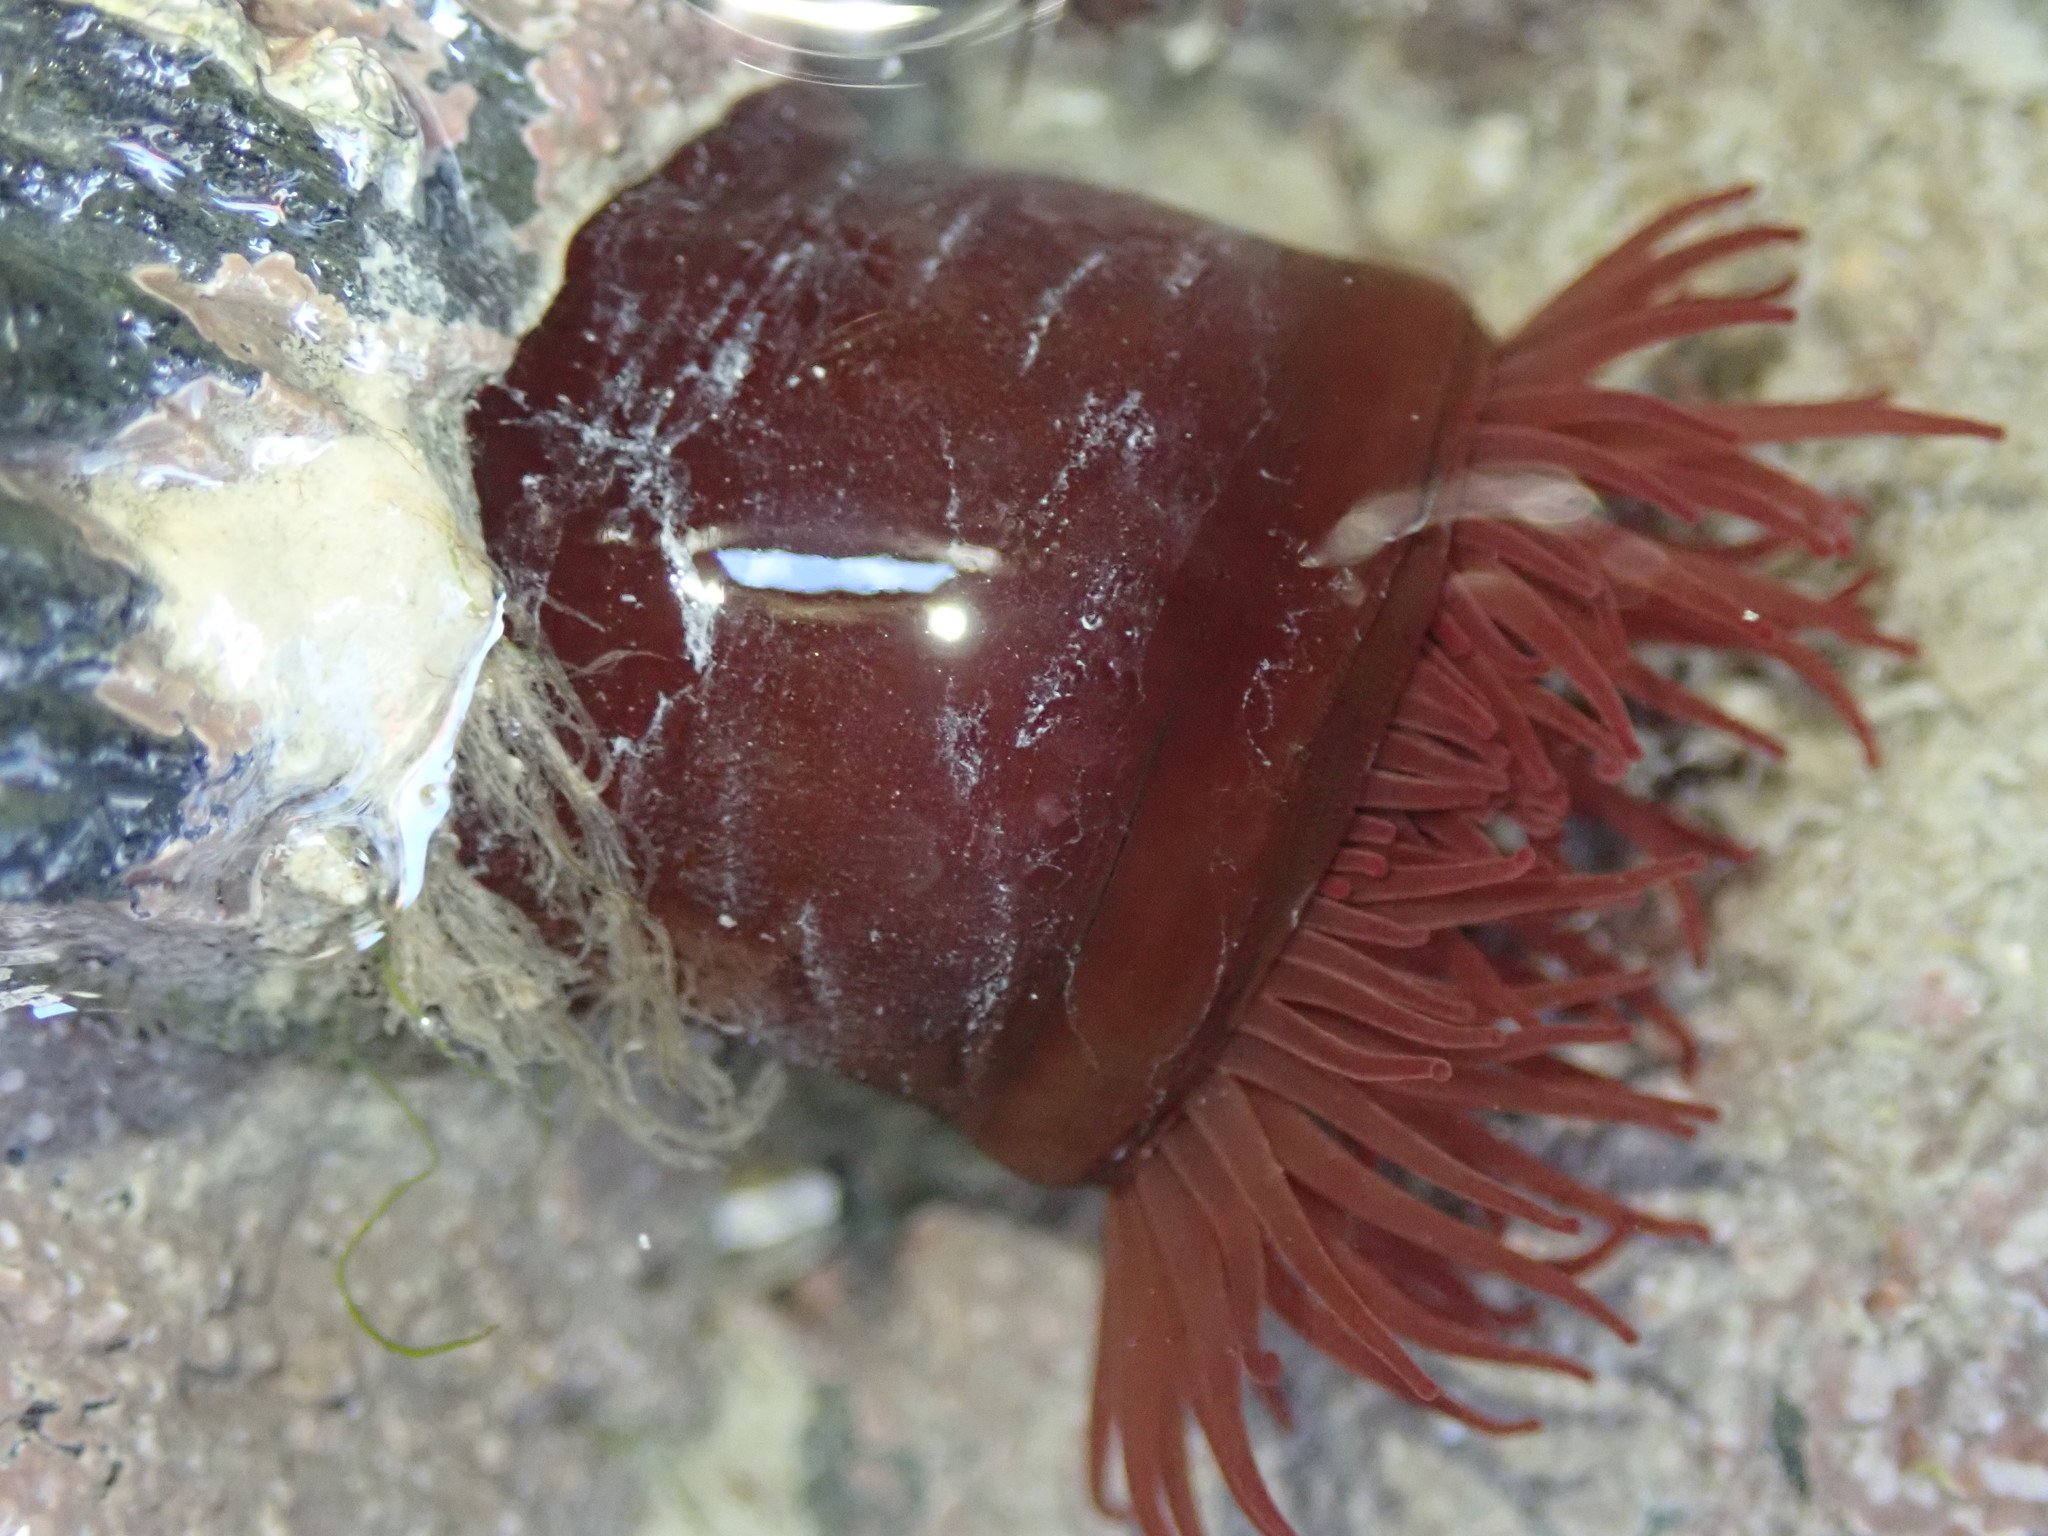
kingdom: Animalia
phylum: Cnidaria
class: Anthozoa
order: Actiniaria
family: Actiniidae
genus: Actinia
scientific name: Actinia equina
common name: Beadlet anemone
